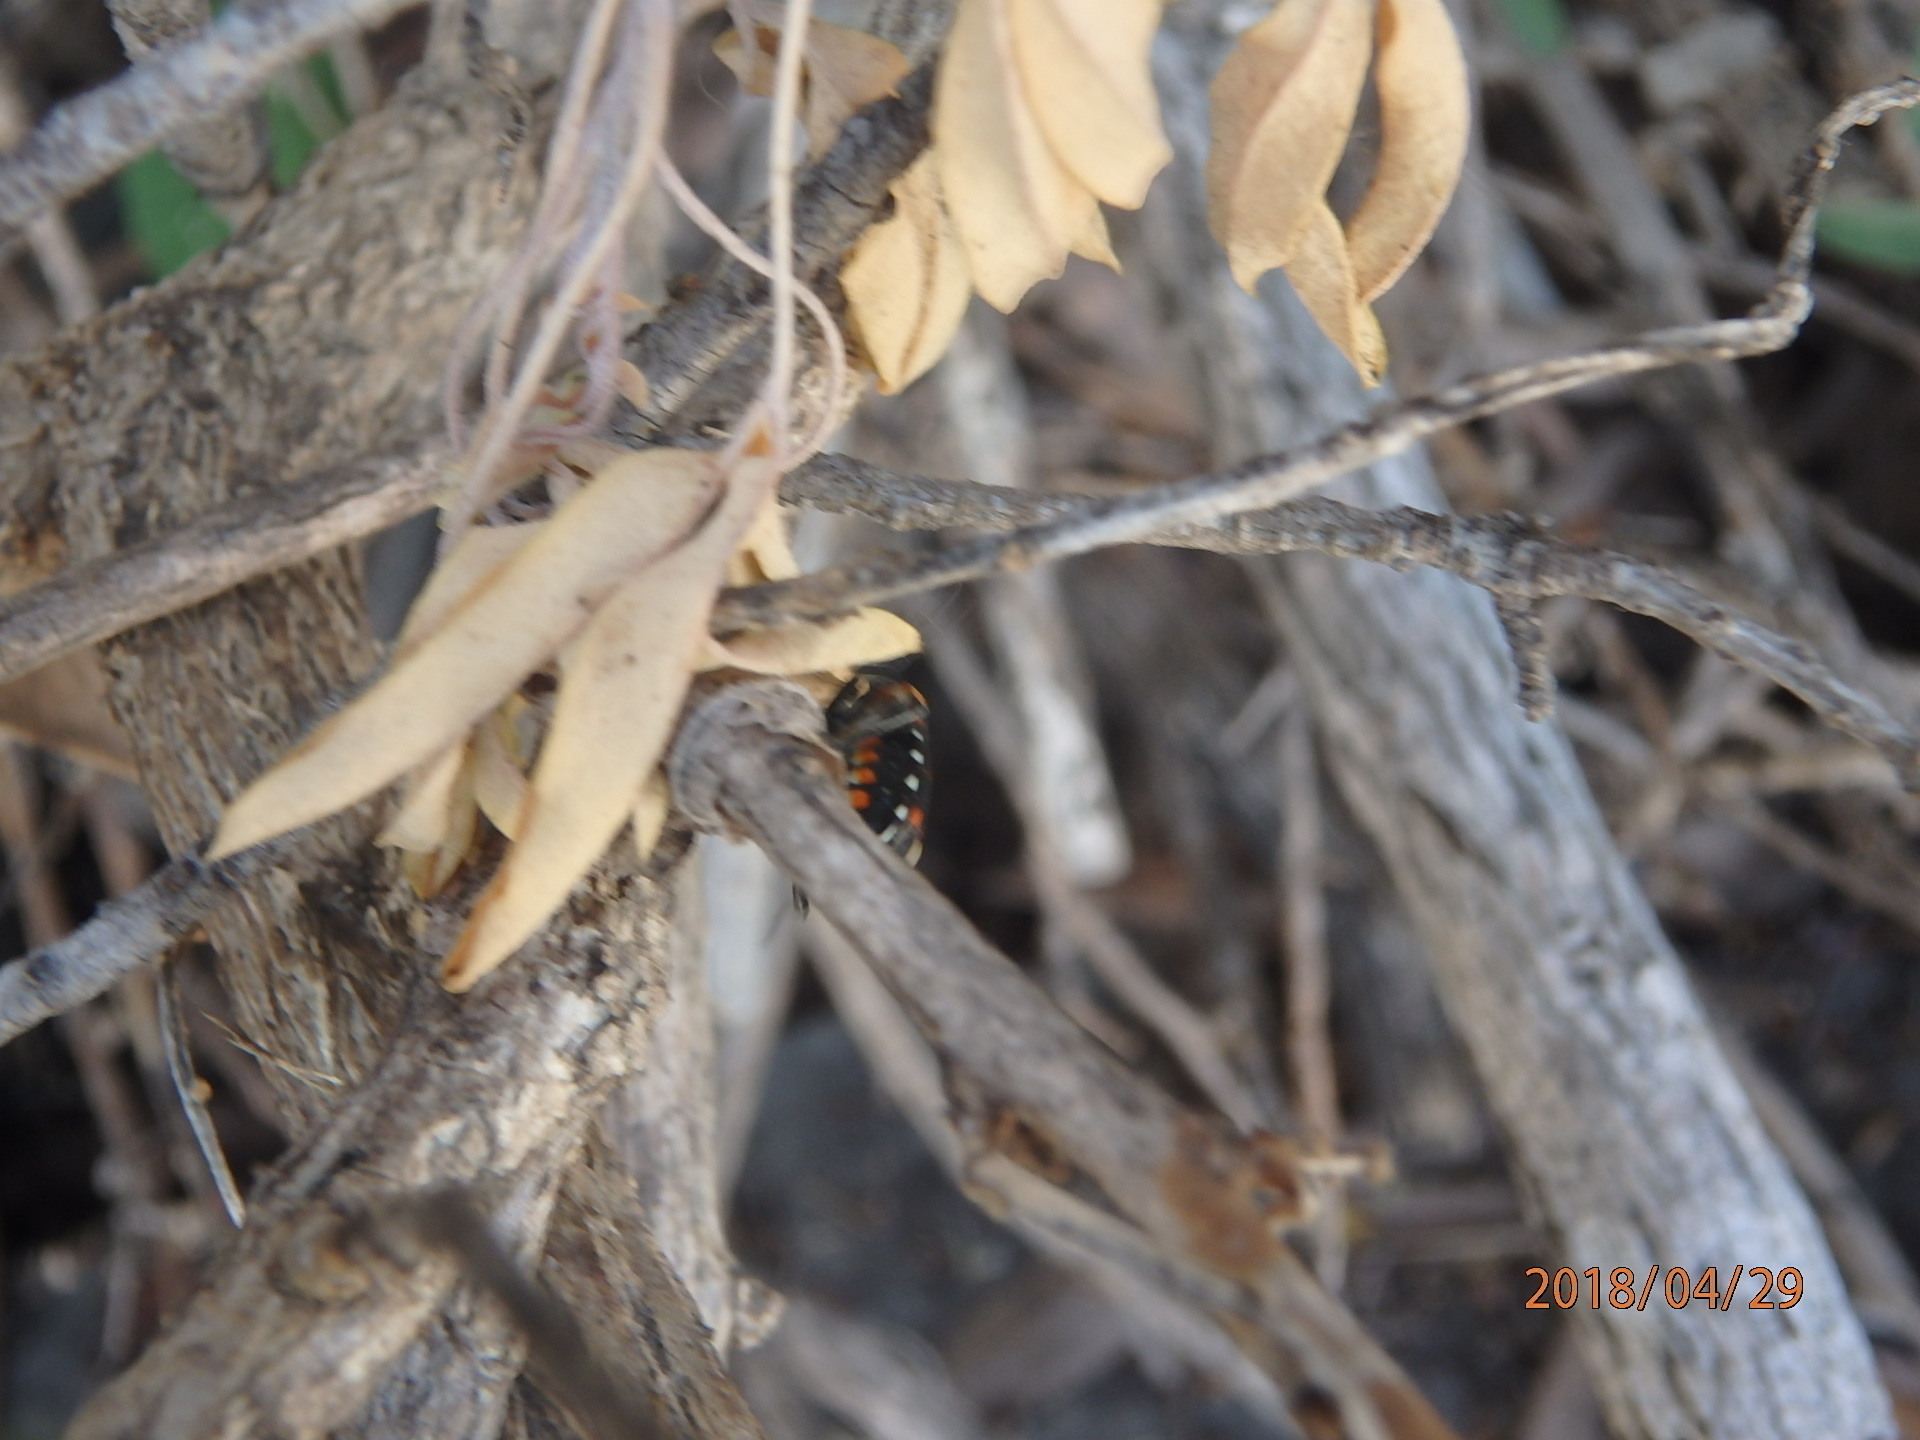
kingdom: Animalia
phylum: Arthropoda
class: Insecta
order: Hemiptera
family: Pentatomidae
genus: Murgantia
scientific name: Murgantia histrionica
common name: Harlequin bug
